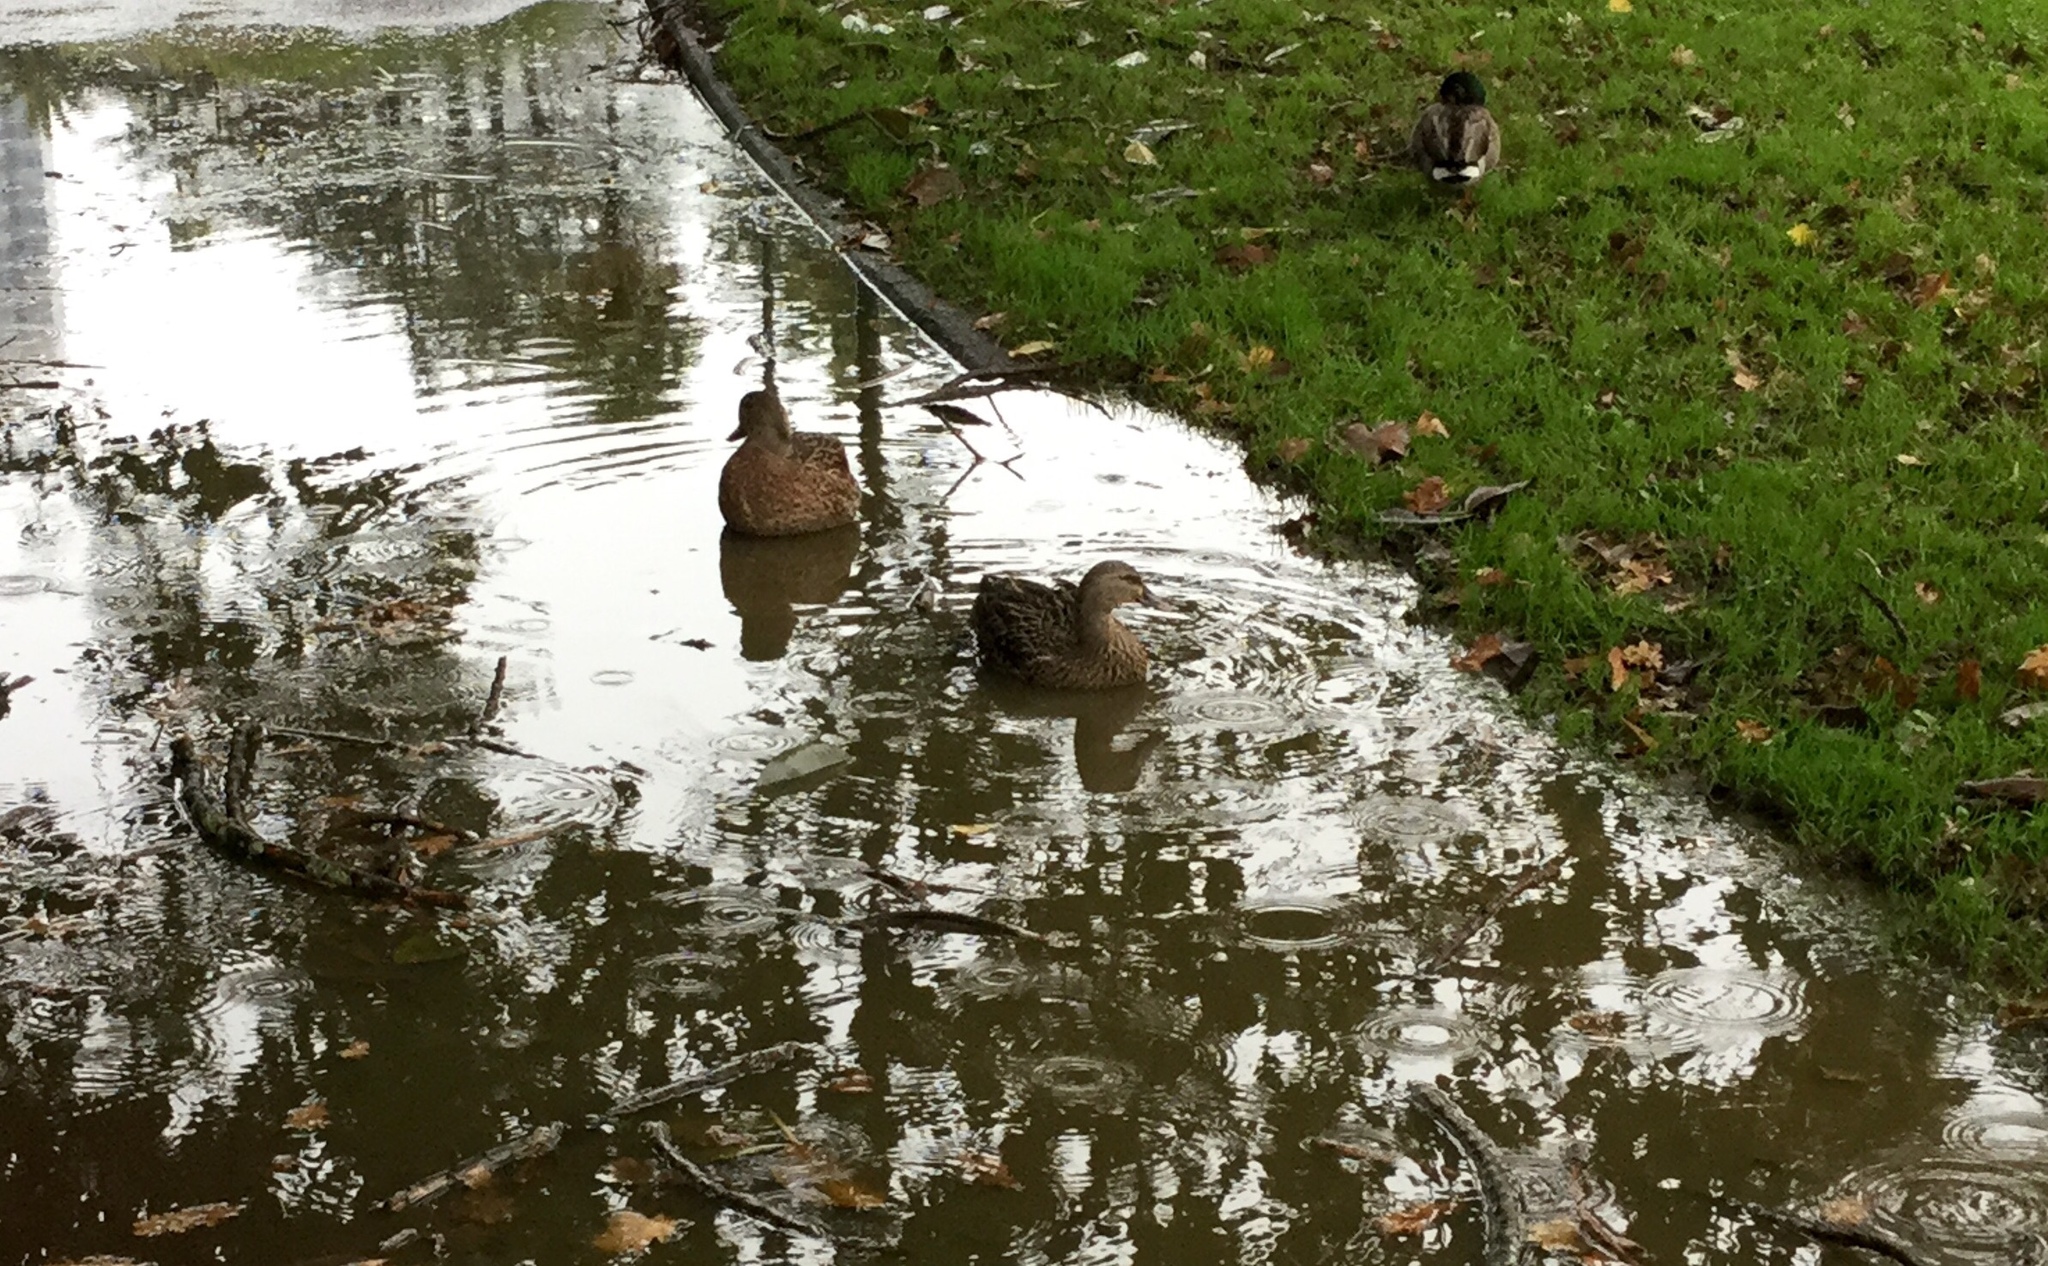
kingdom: Animalia
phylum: Chordata
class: Aves
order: Anseriformes
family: Anatidae
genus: Anas
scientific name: Anas platyrhynchos
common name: Mallard
